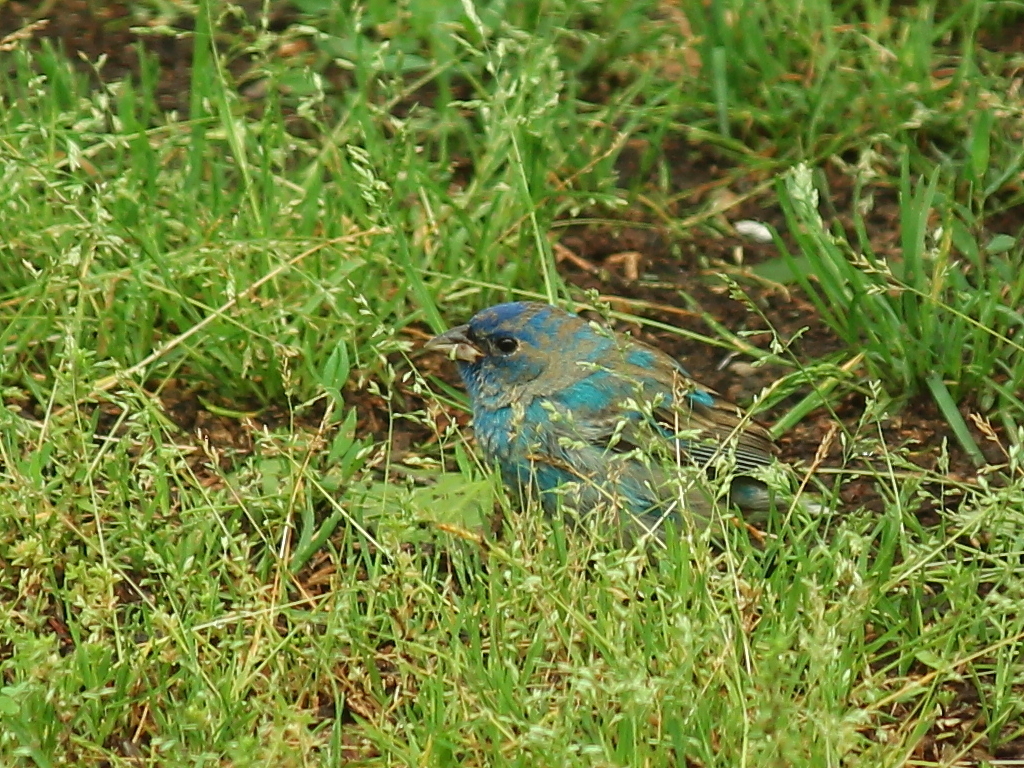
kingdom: Animalia
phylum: Chordata
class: Aves
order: Passeriformes
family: Cardinalidae
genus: Passerina
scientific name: Passerina cyanea
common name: Indigo bunting
